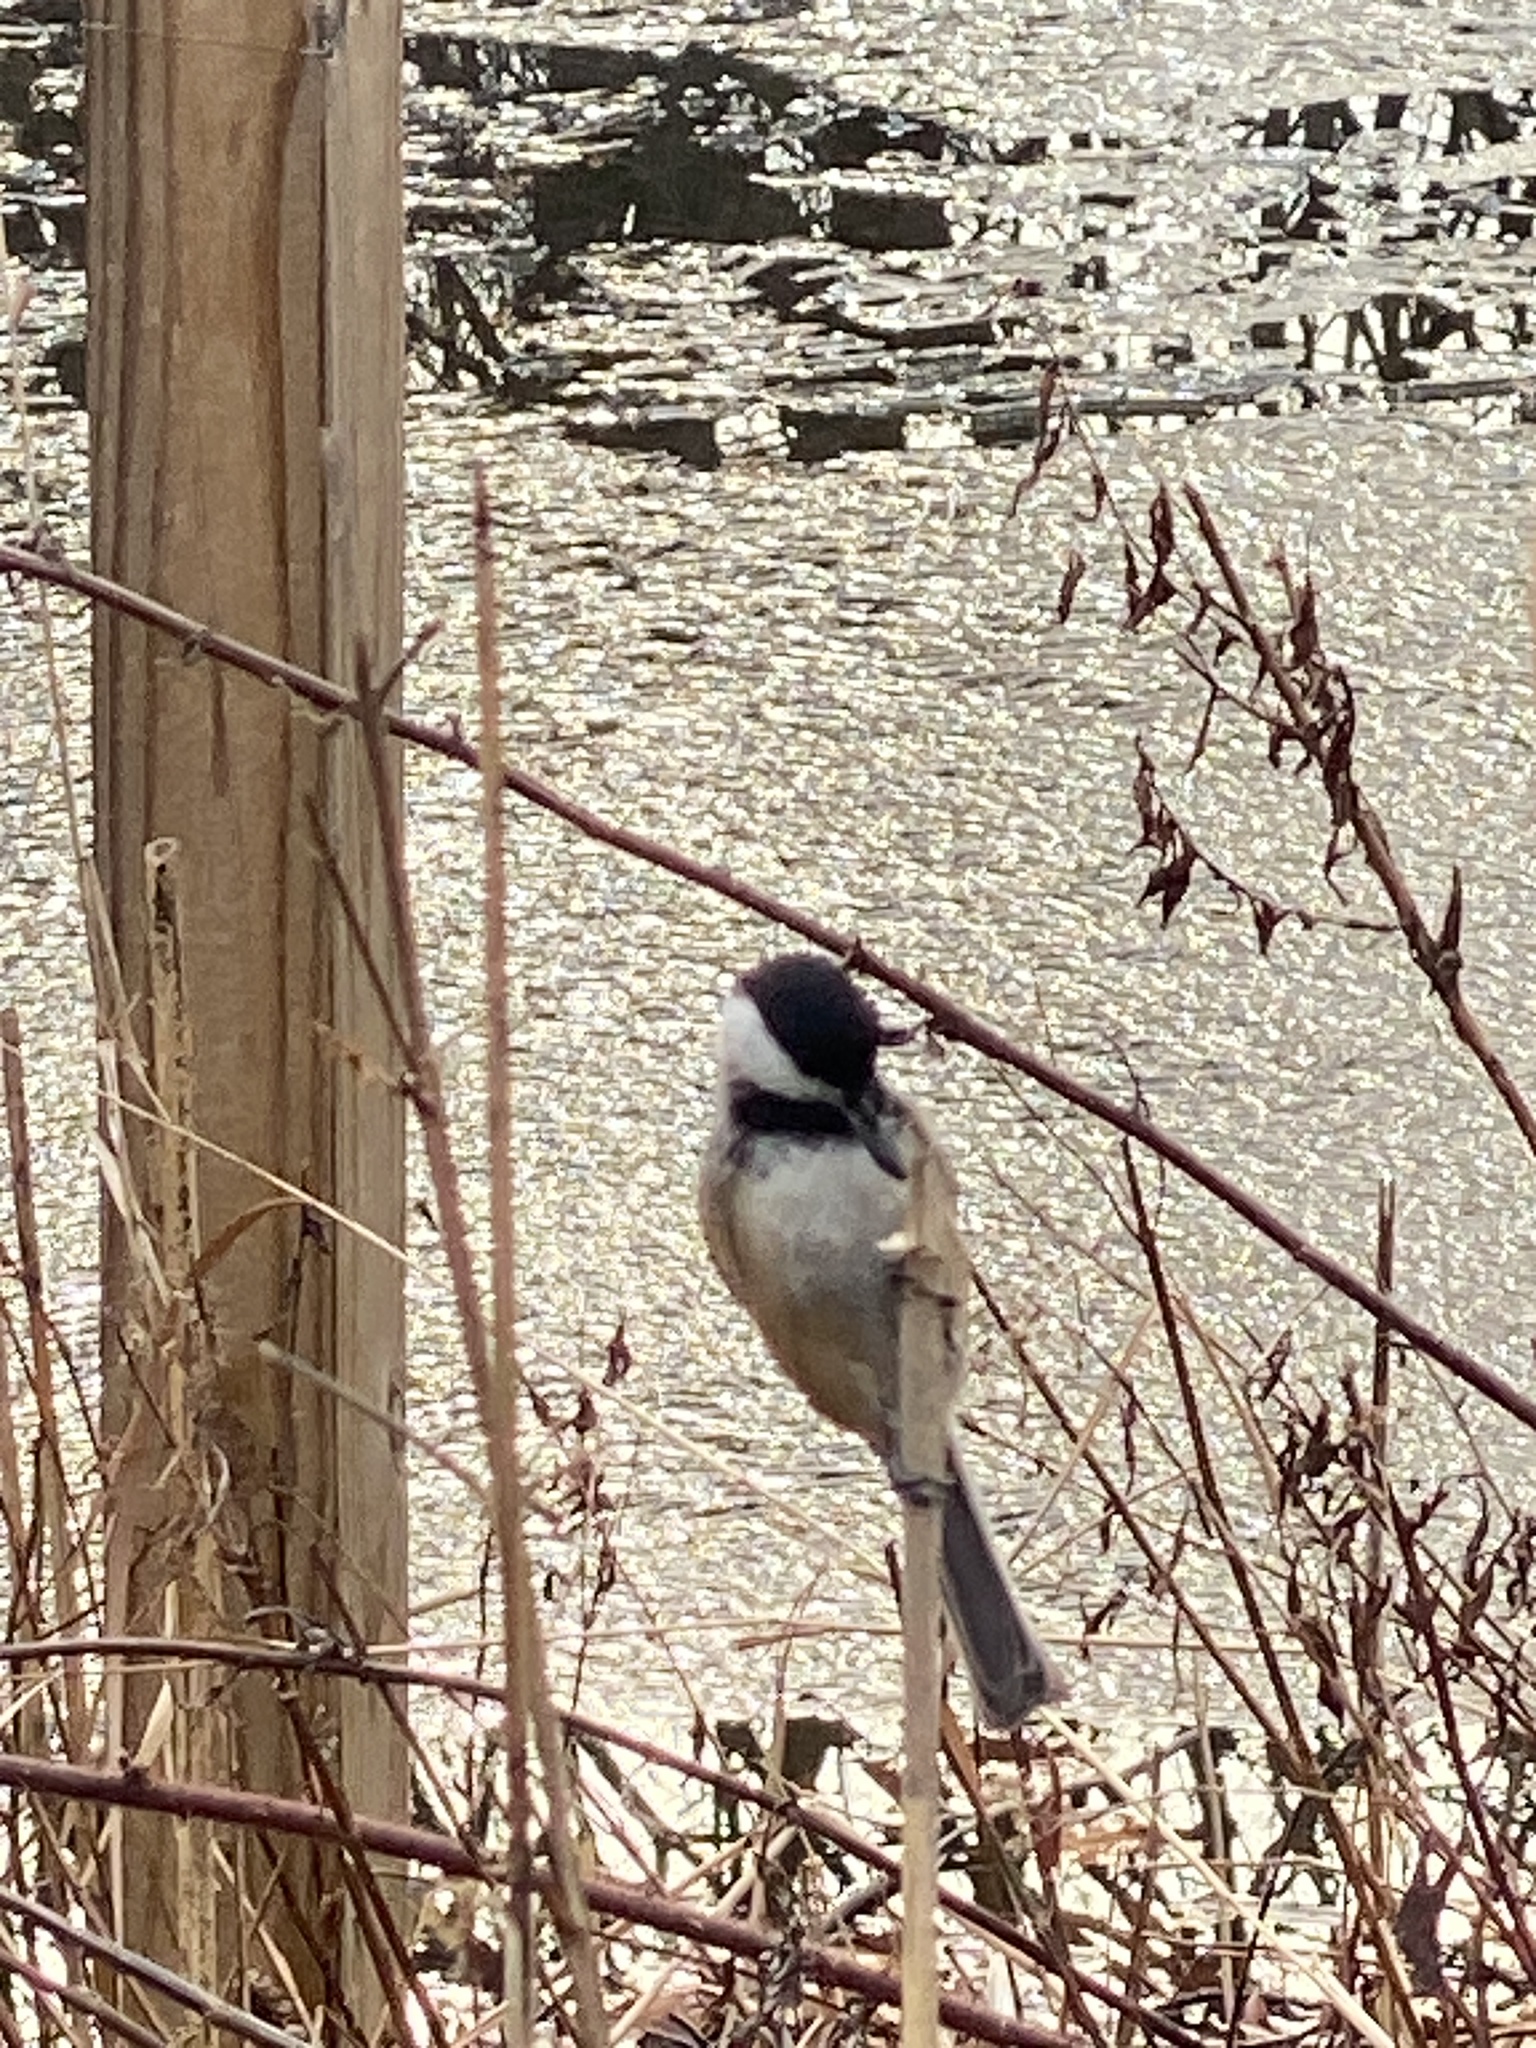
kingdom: Animalia
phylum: Chordata
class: Aves
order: Passeriformes
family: Paridae
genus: Poecile
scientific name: Poecile atricapillus
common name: Black-capped chickadee
